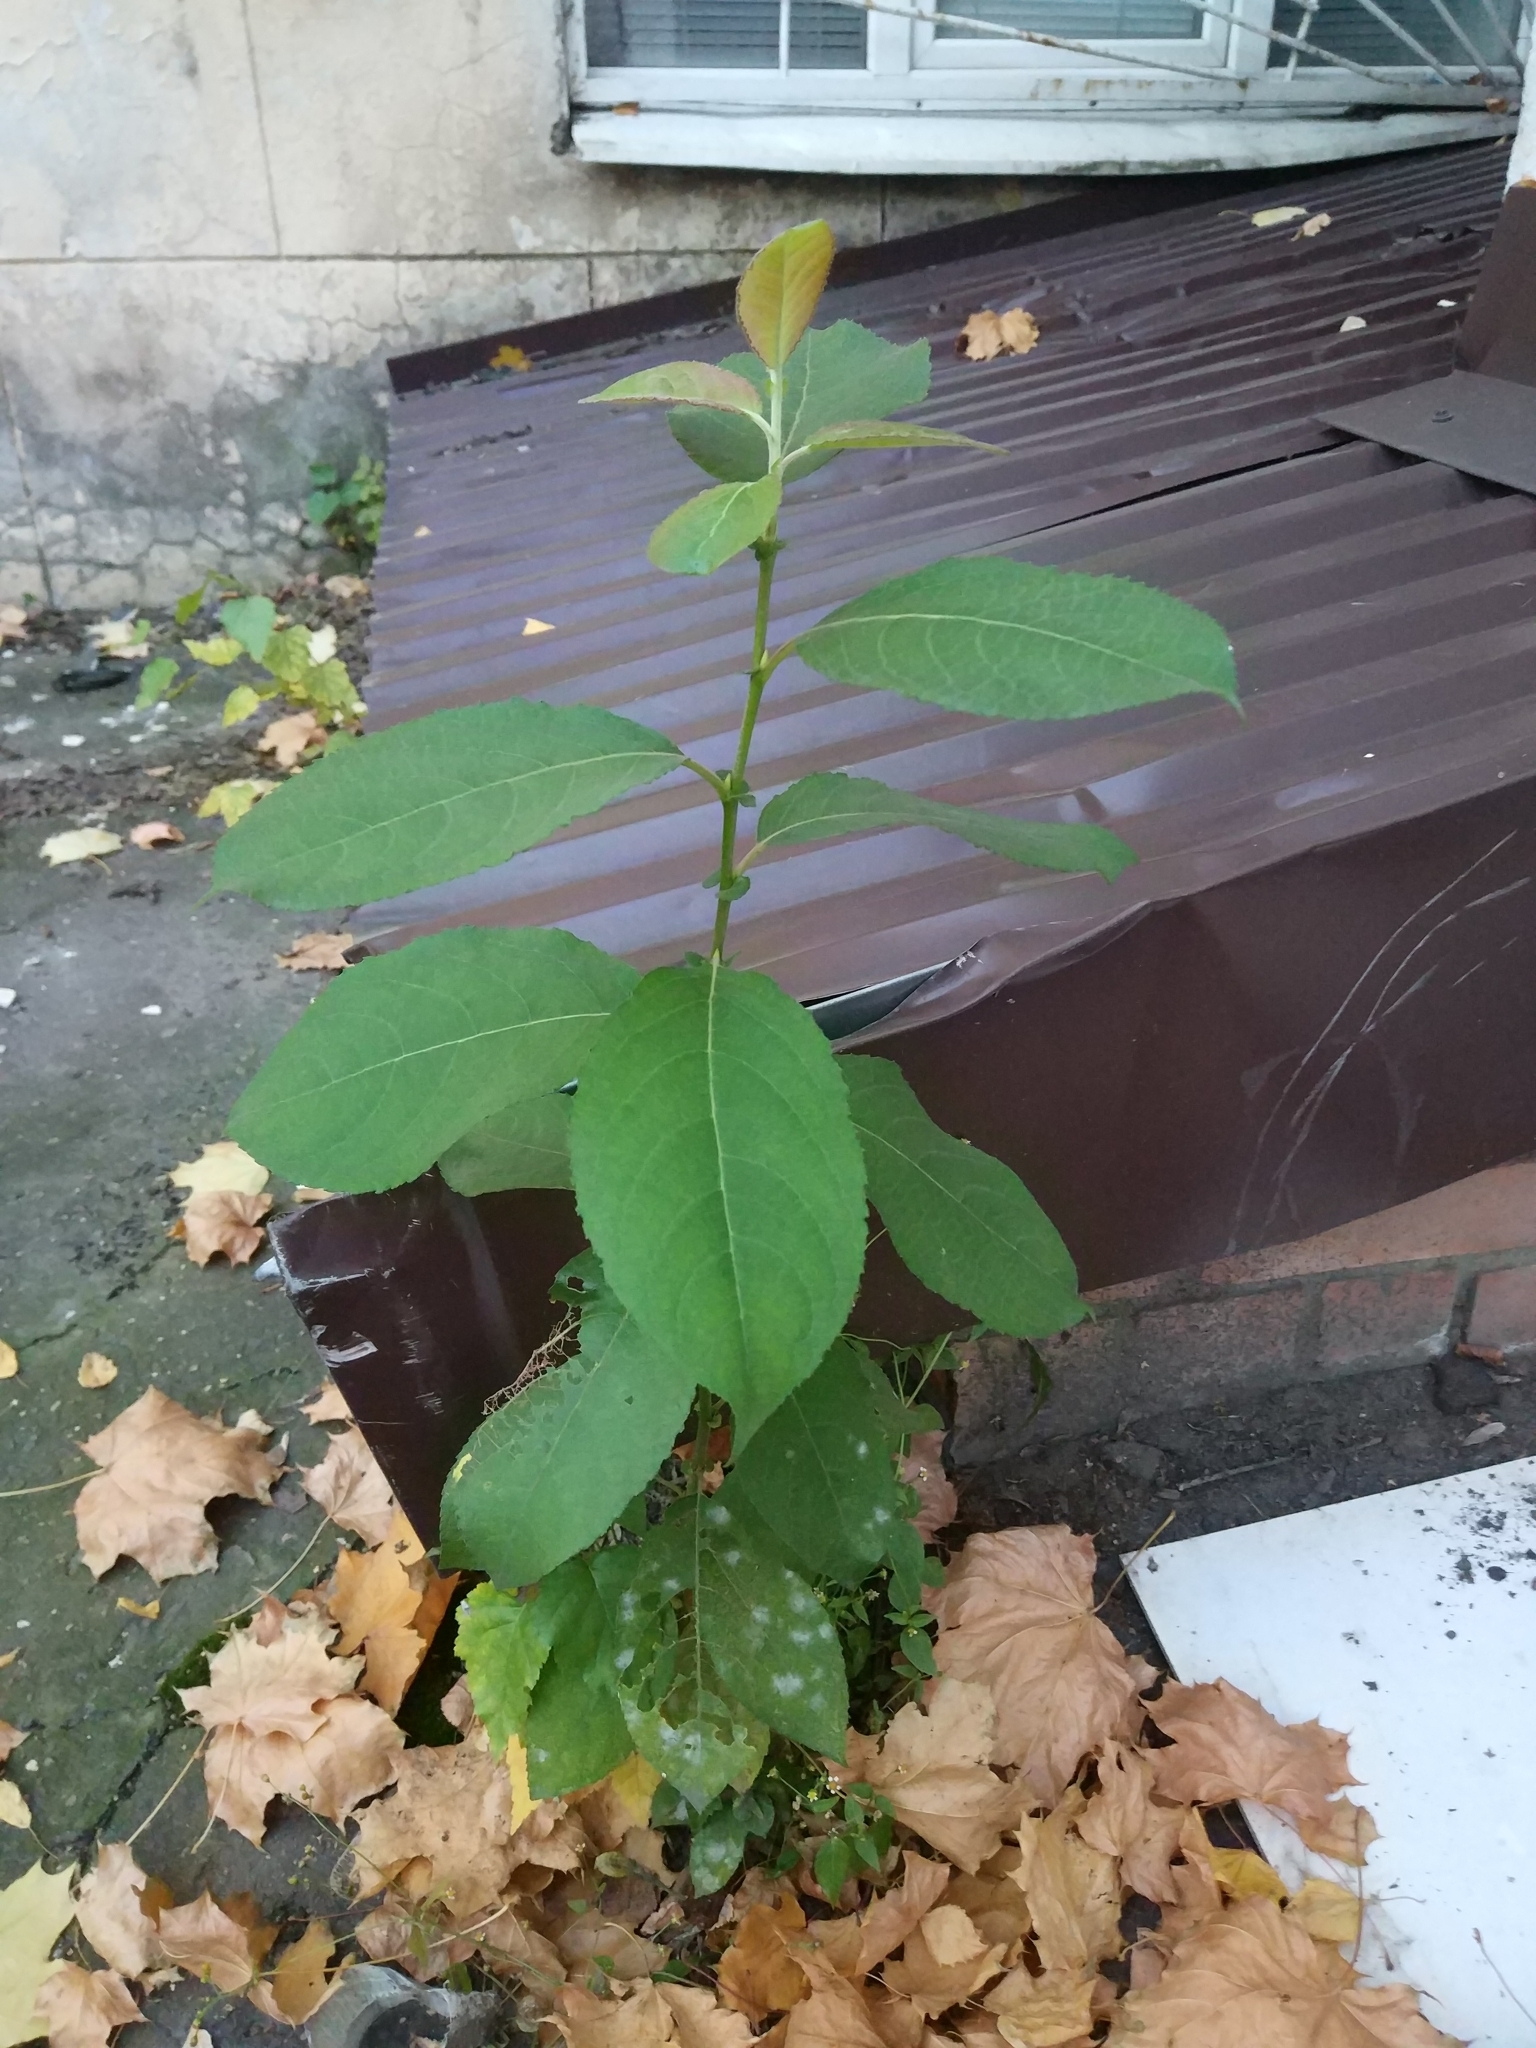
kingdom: Plantae
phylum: Tracheophyta
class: Magnoliopsida
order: Malpighiales
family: Salicaceae
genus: Salix
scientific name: Salix caprea
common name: Goat willow
